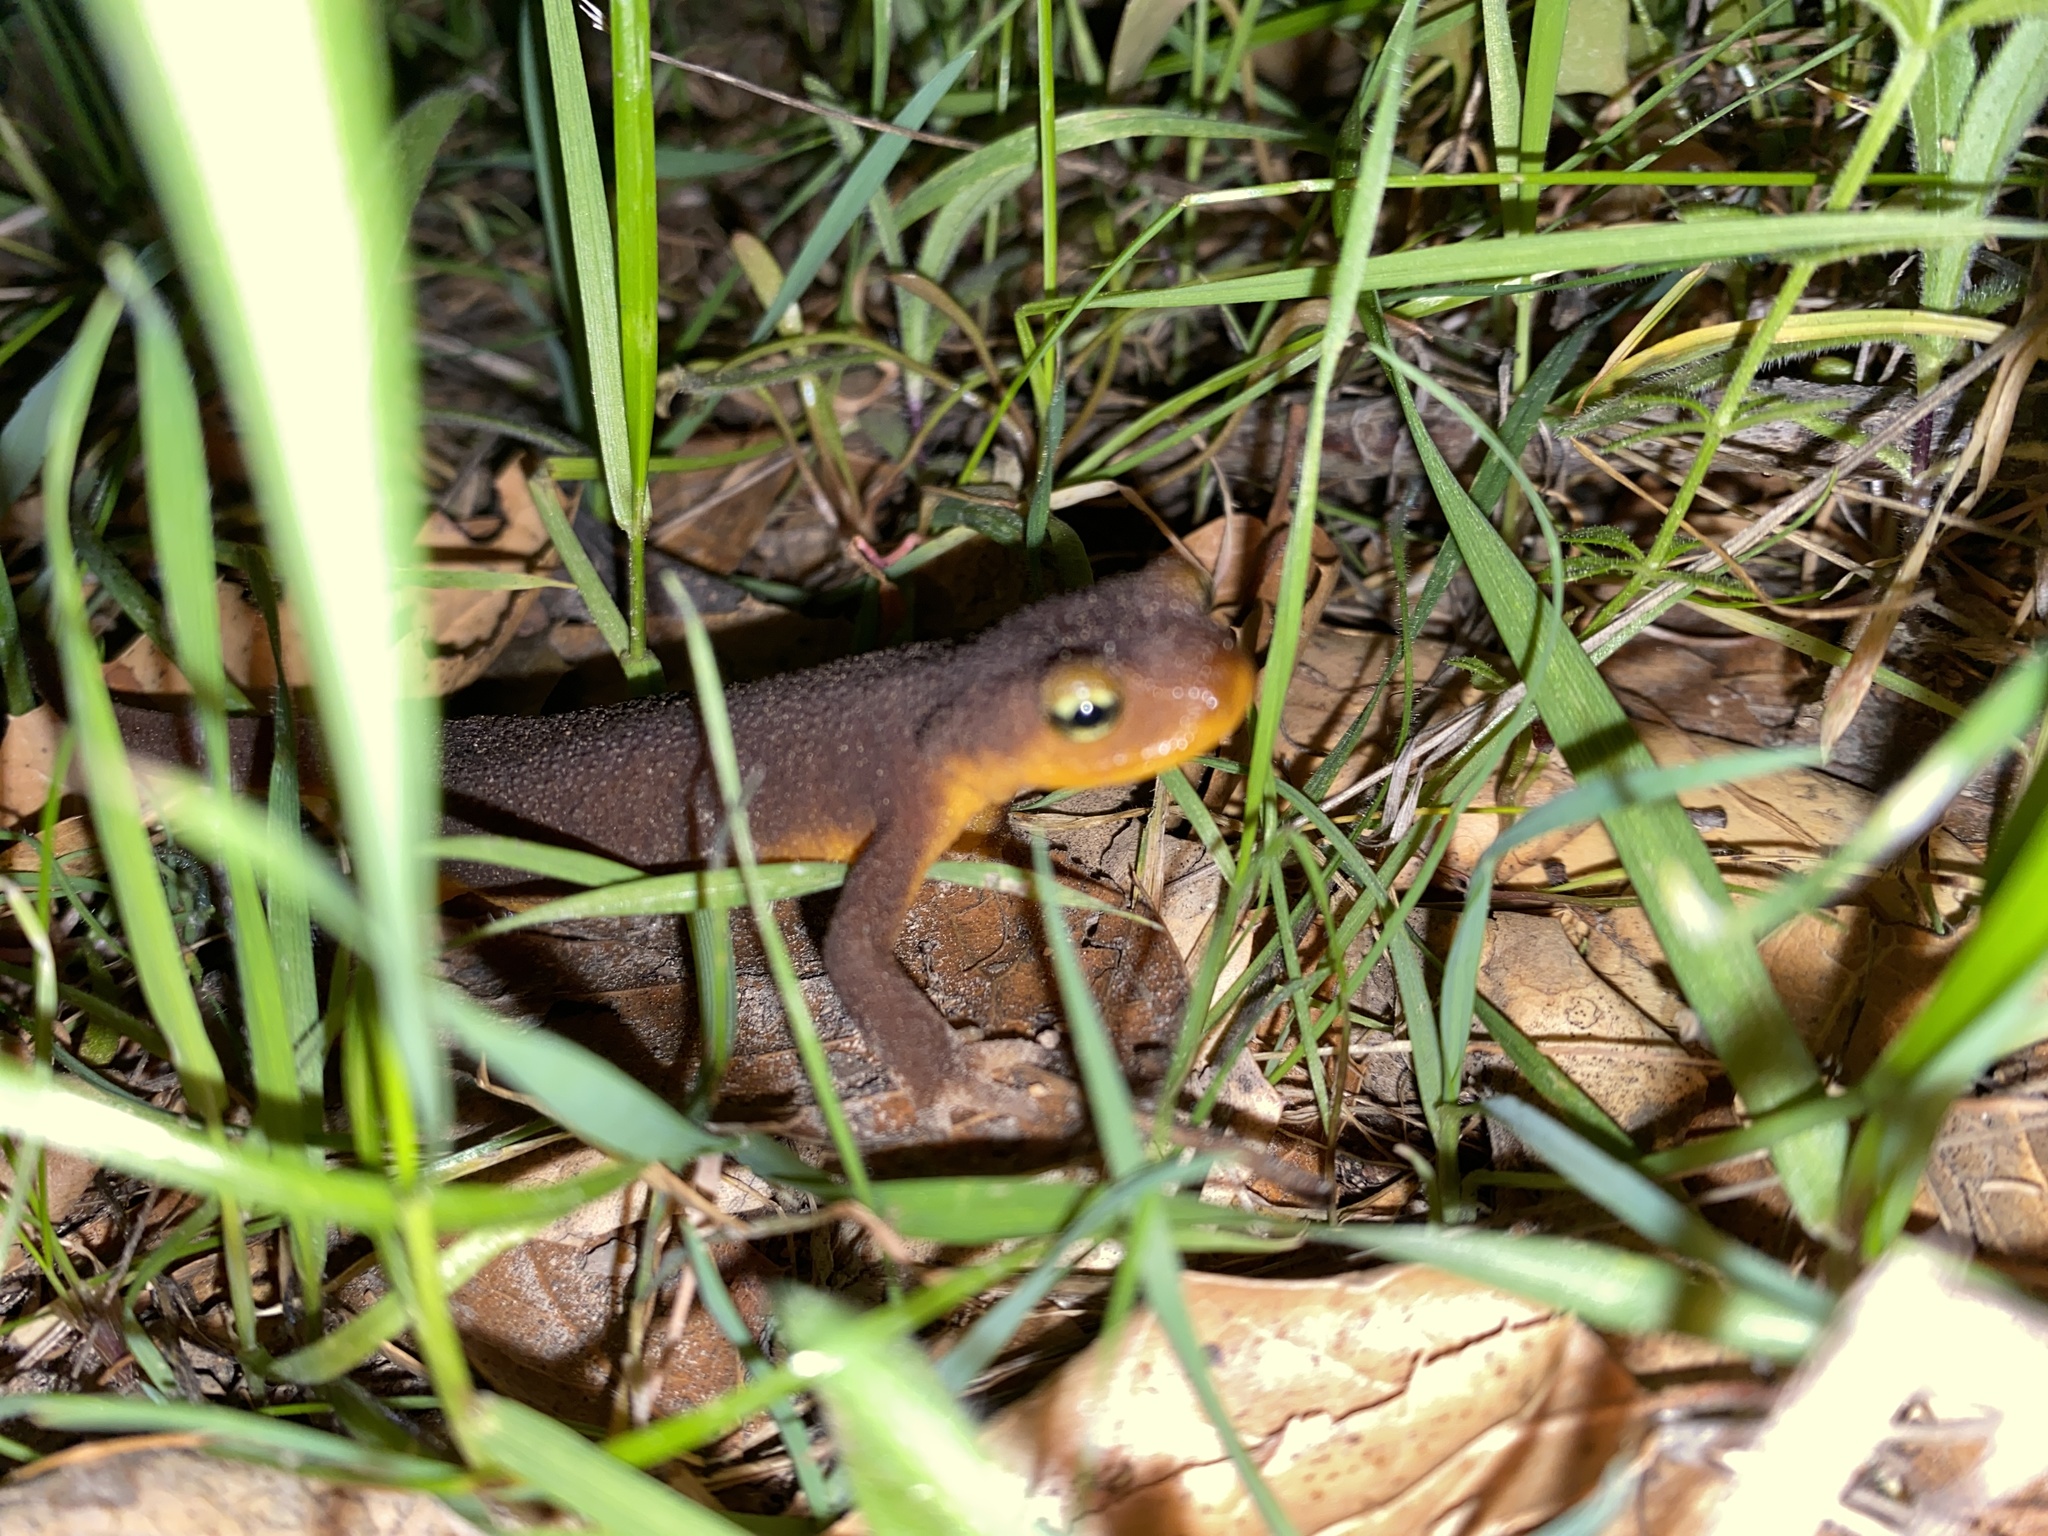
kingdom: Animalia
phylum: Chordata
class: Amphibia
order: Caudata
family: Salamandridae
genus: Taricha
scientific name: Taricha torosa
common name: California newt
